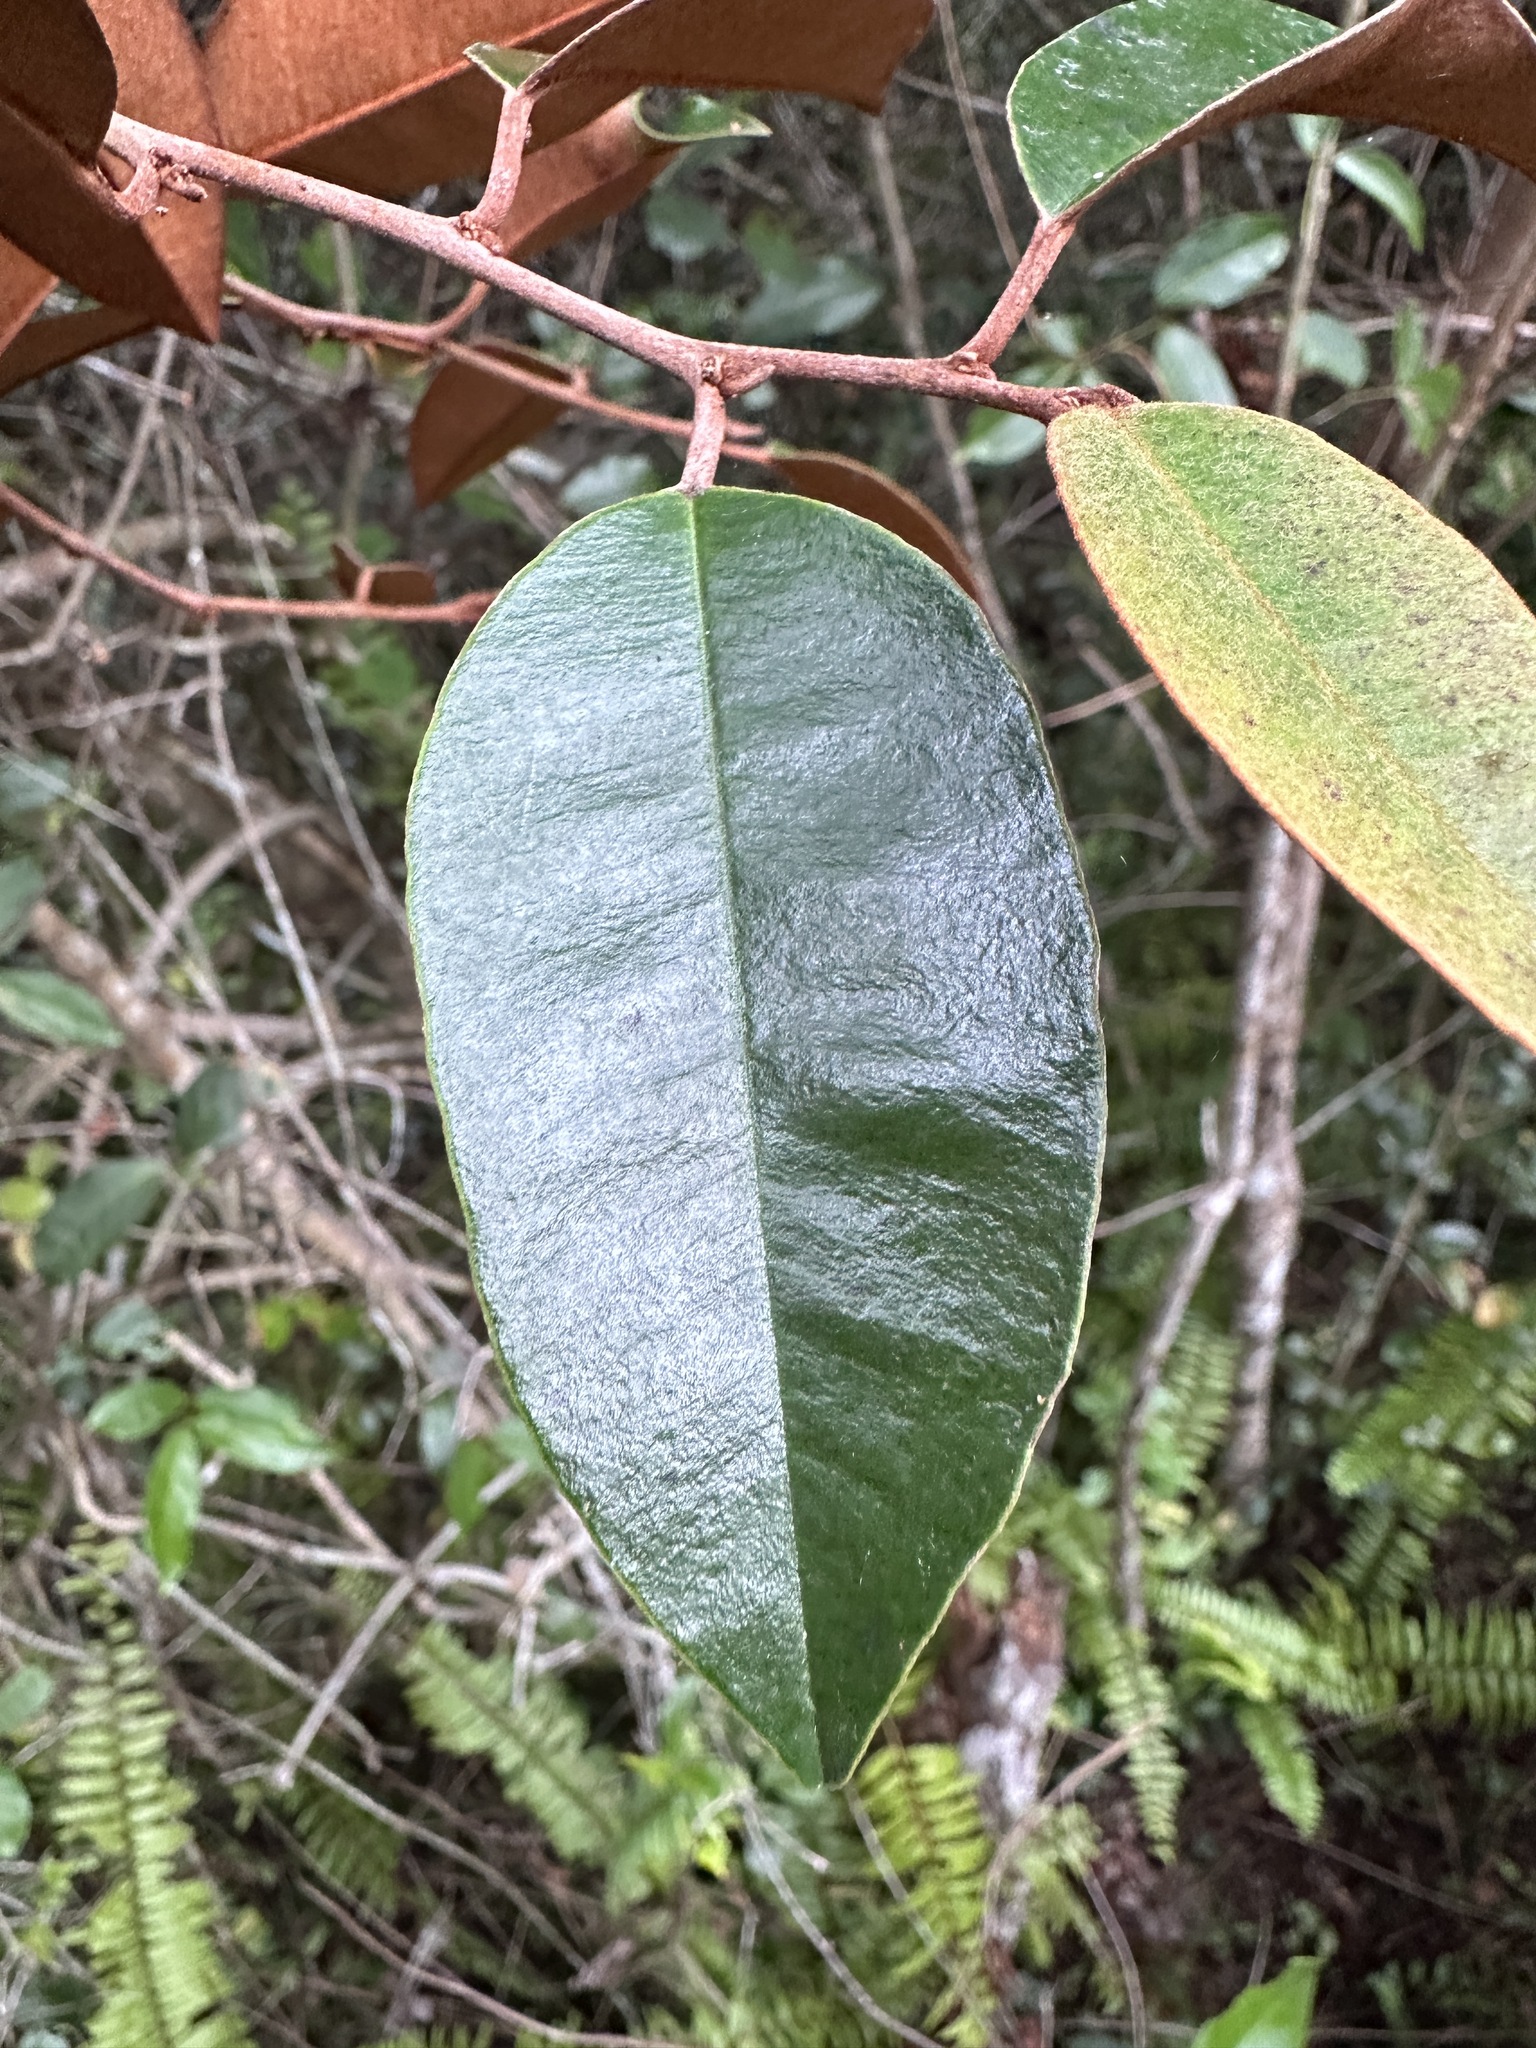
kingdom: Plantae
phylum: Tracheophyta
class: Magnoliopsida
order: Ericales
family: Sapotaceae
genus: Chrysophyllum
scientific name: Chrysophyllum oliviforme
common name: Satinleaf
